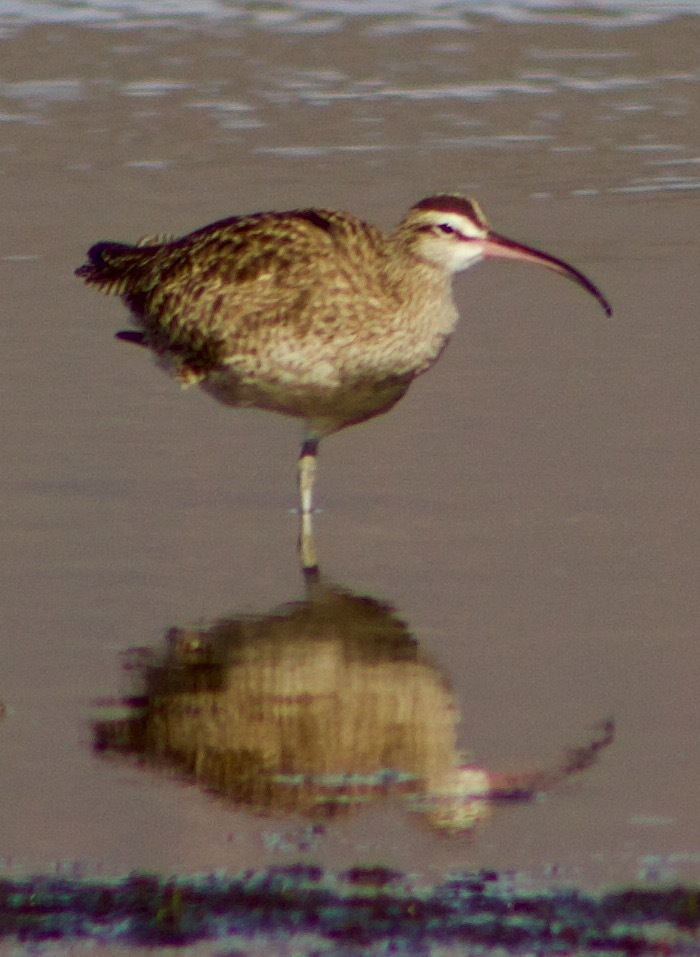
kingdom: Animalia
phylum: Chordata
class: Aves
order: Charadriiformes
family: Scolopacidae
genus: Numenius
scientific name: Numenius phaeopus
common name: Whimbrel
